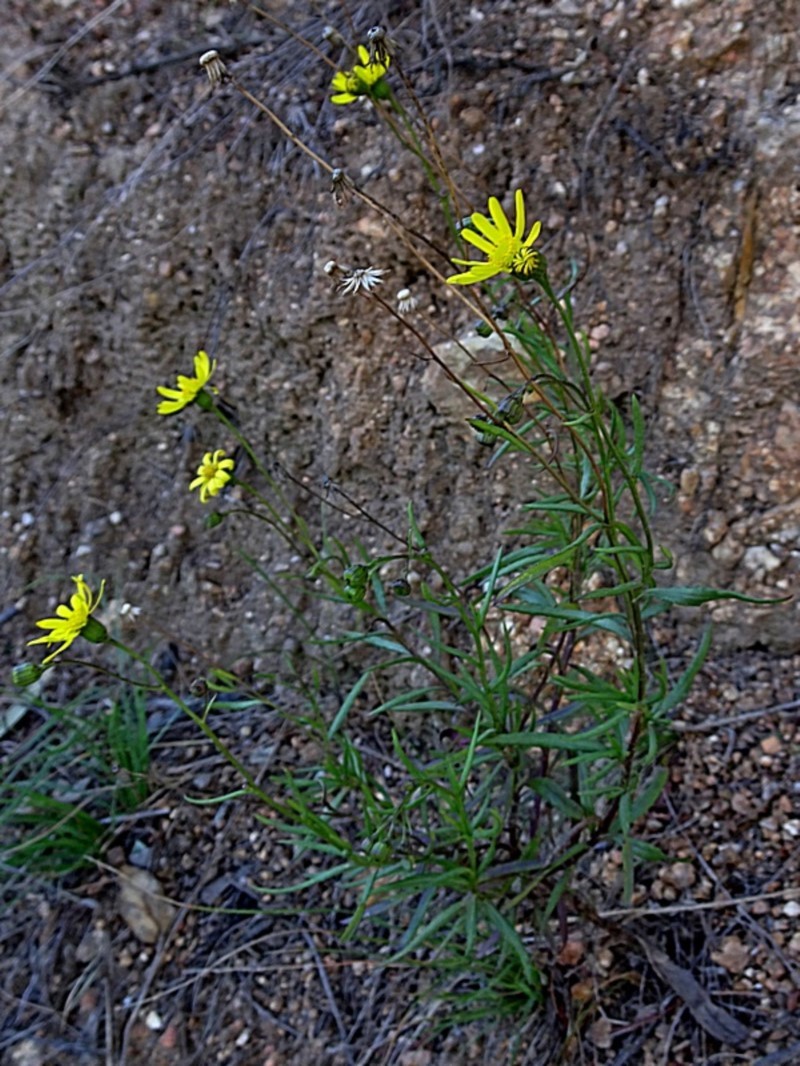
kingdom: Plantae
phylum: Tracheophyta
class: Magnoliopsida
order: Asterales
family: Asteraceae
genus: Senecio
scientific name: Senecio madagascariensis
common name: Madagascar ragwort
